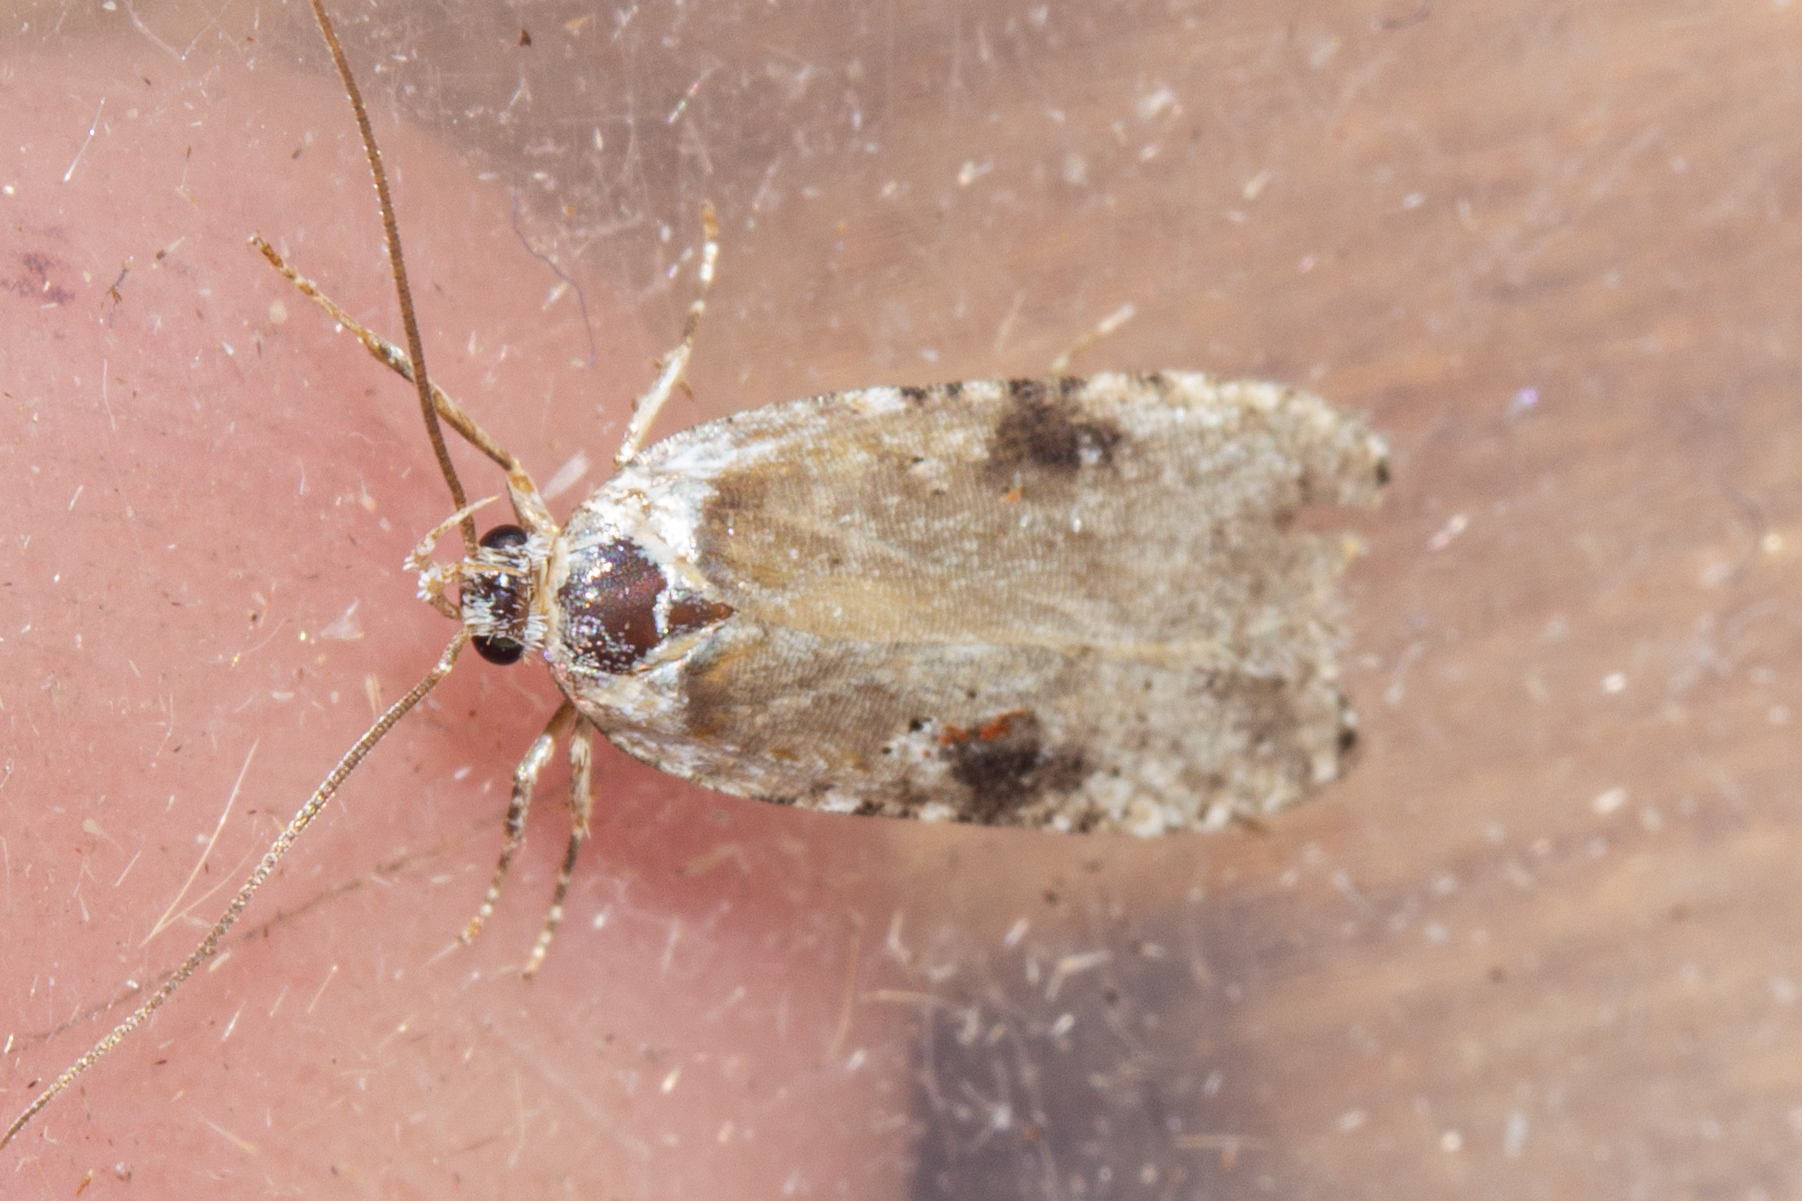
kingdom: Animalia
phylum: Arthropoda
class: Insecta
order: Lepidoptera
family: Depressariidae
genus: Agonopterix
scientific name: Agonopterix alstroemeriana
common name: Moth
